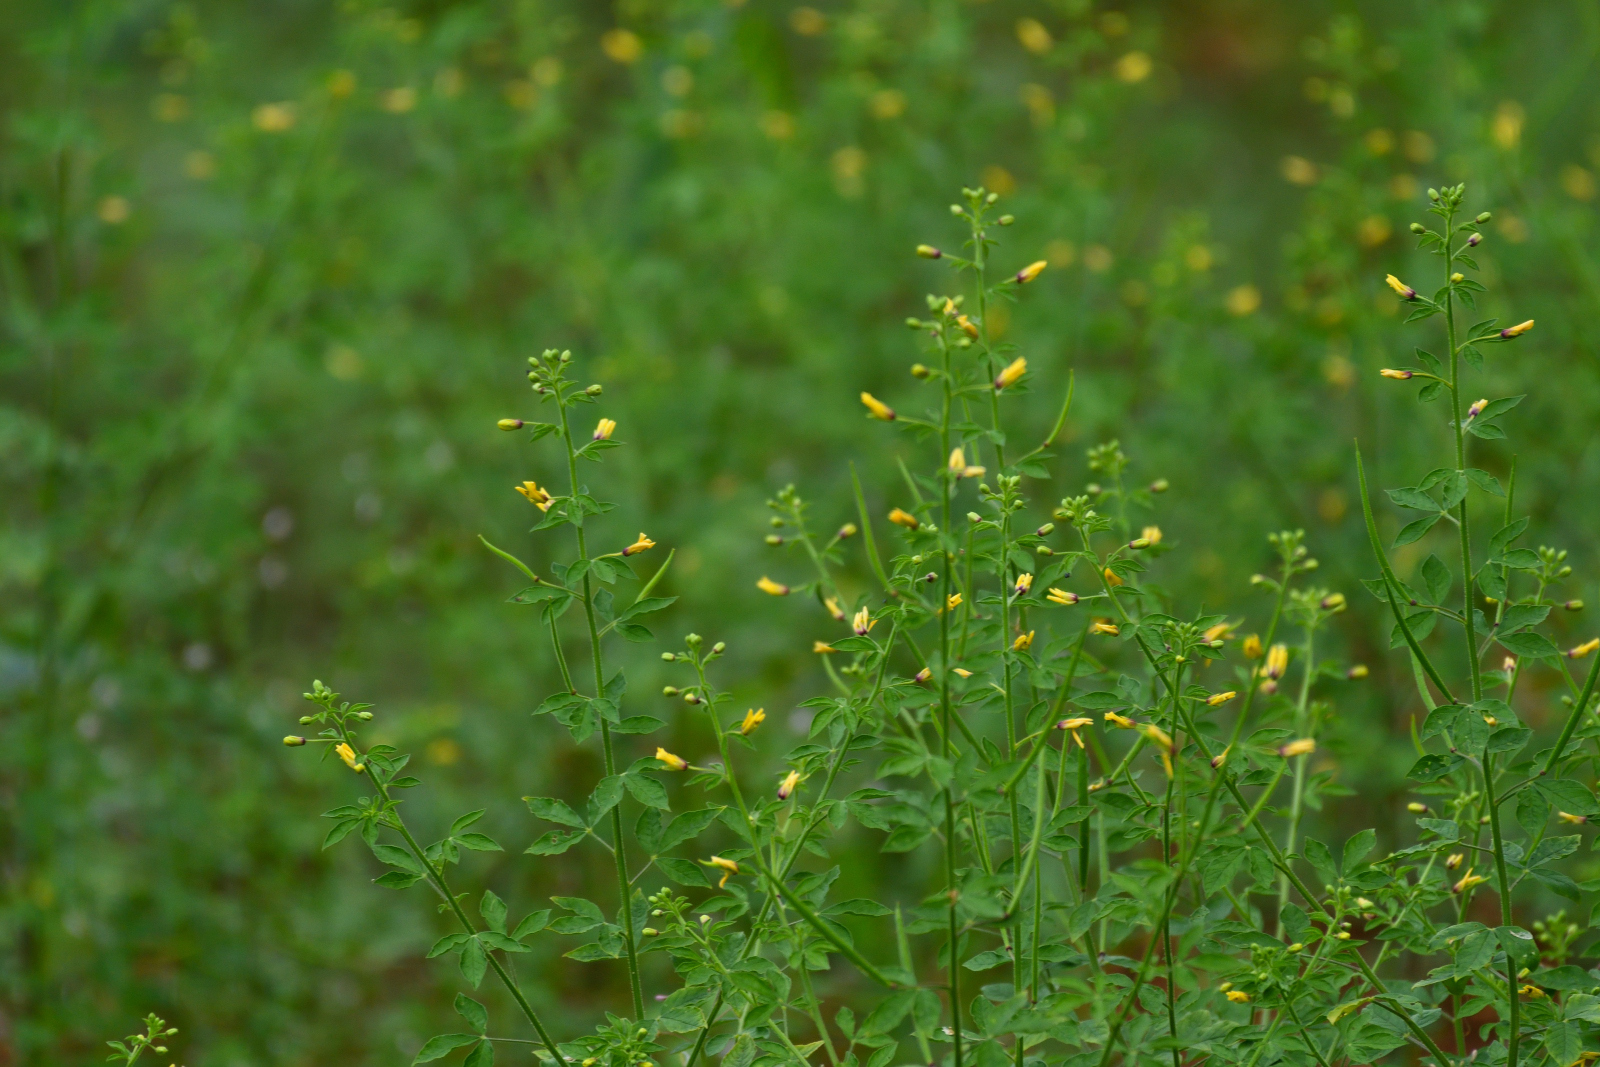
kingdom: Plantae
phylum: Tracheophyta
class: Magnoliopsida
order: Brassicales
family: Cleomaceae
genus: Arivela
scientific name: Arivela viscosa
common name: Asian spiderflower
